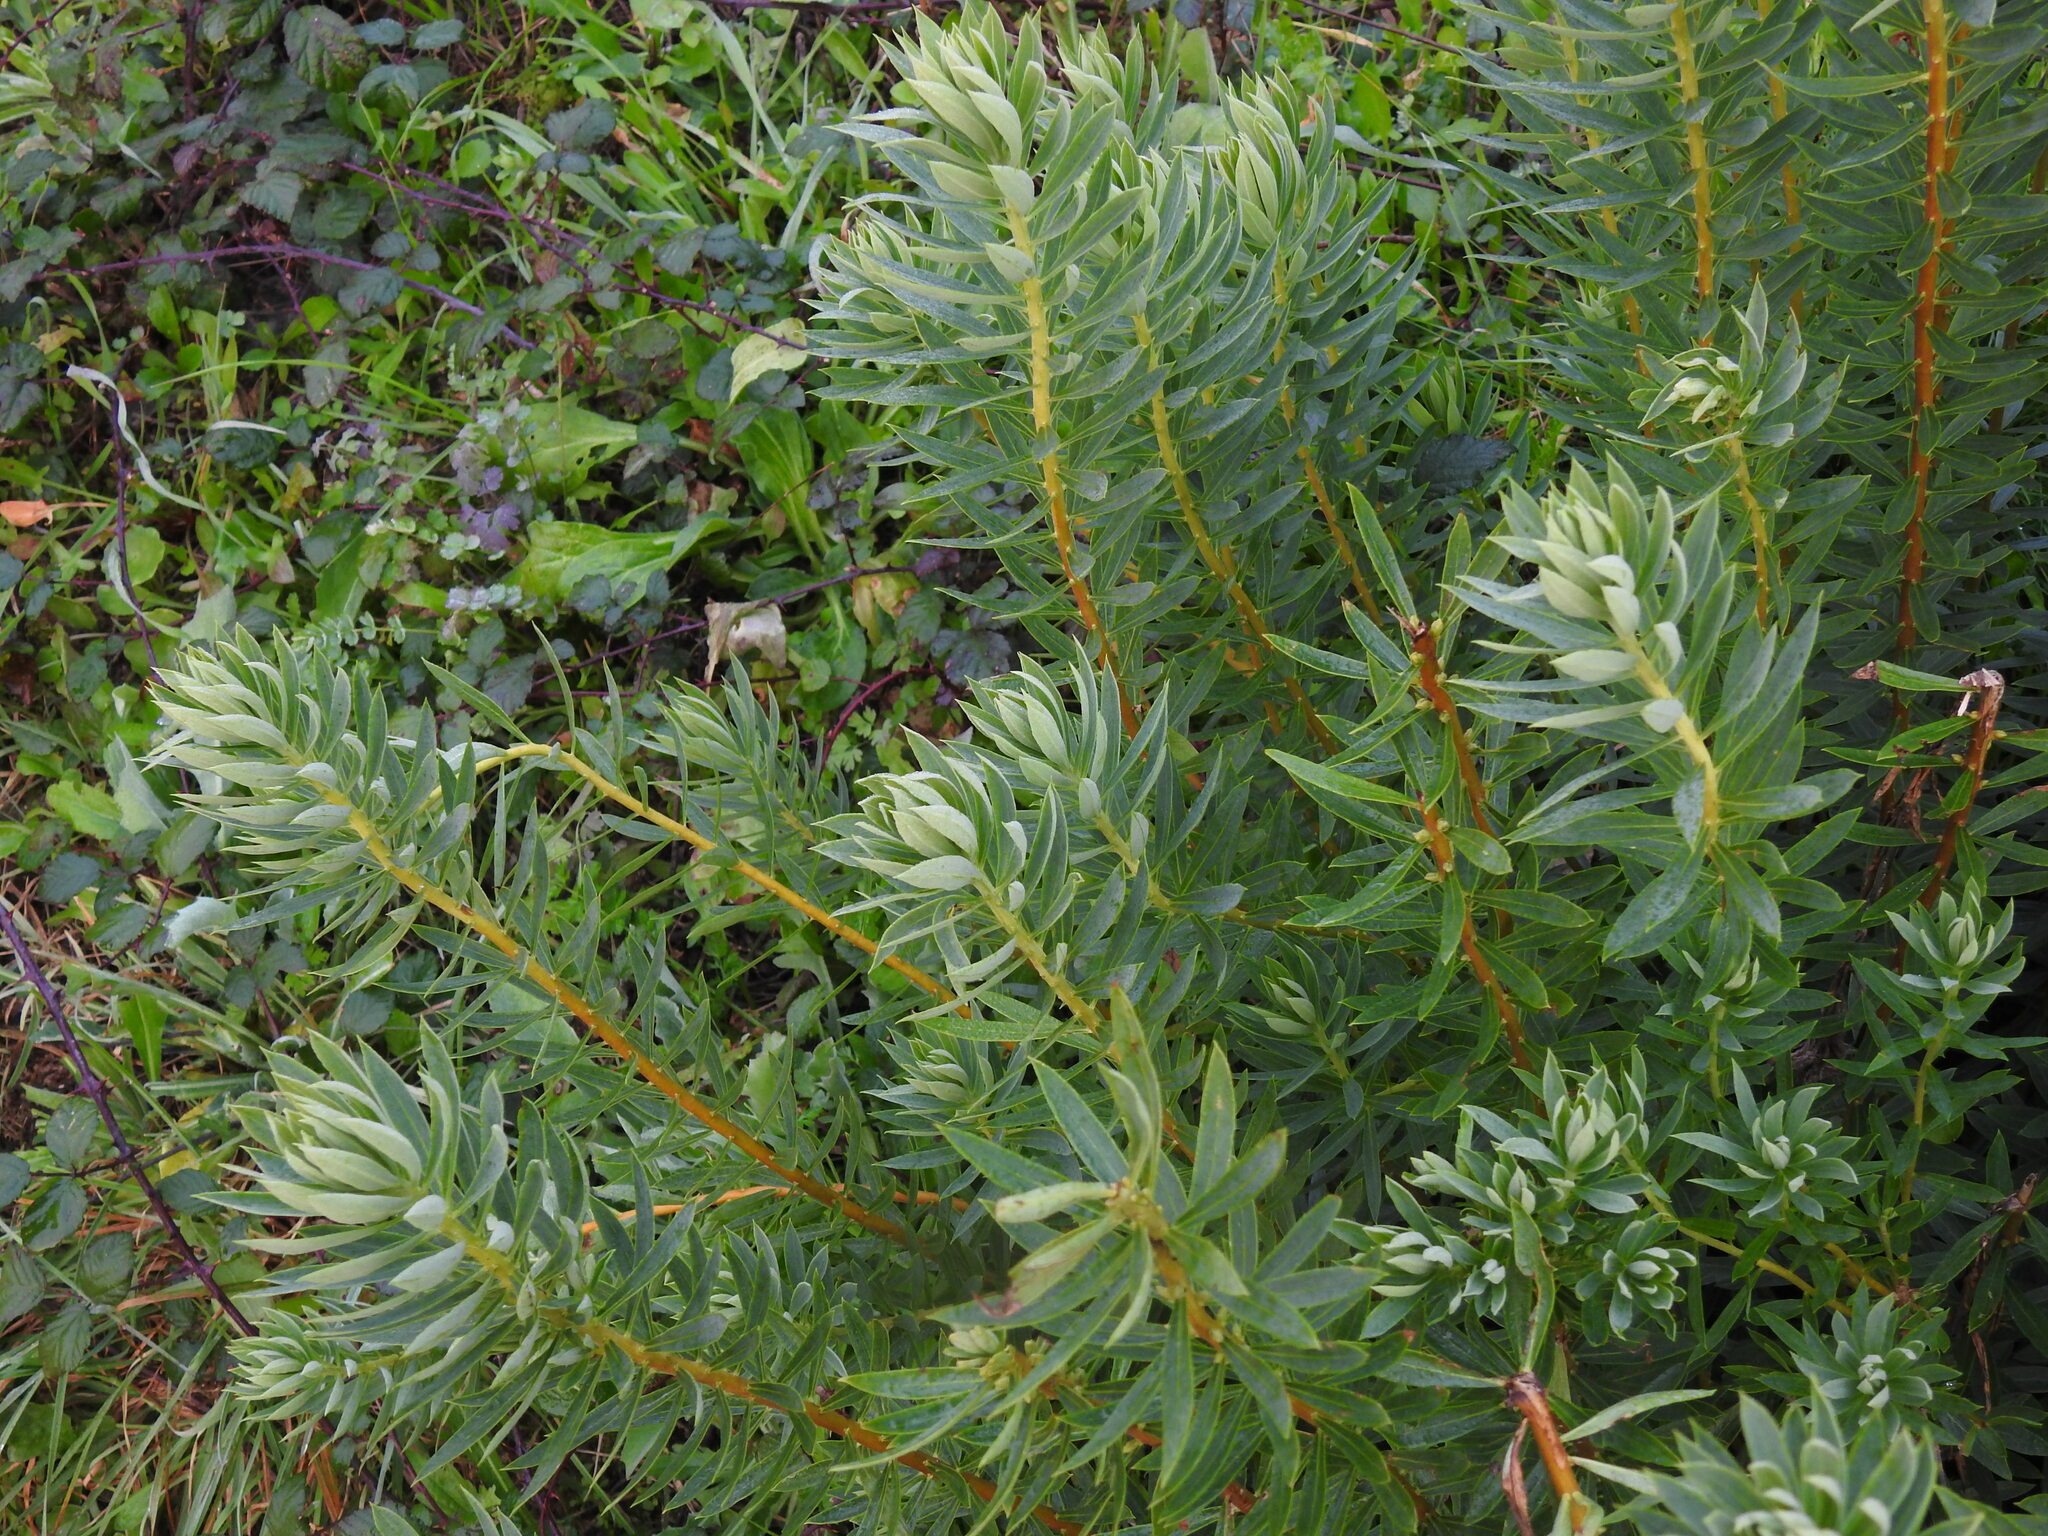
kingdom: Plantae
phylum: Tracheophyta
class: Magnoliopsida
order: Malvales
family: Thymelaeaceae
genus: Daphne
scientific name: Daphne gnidium
